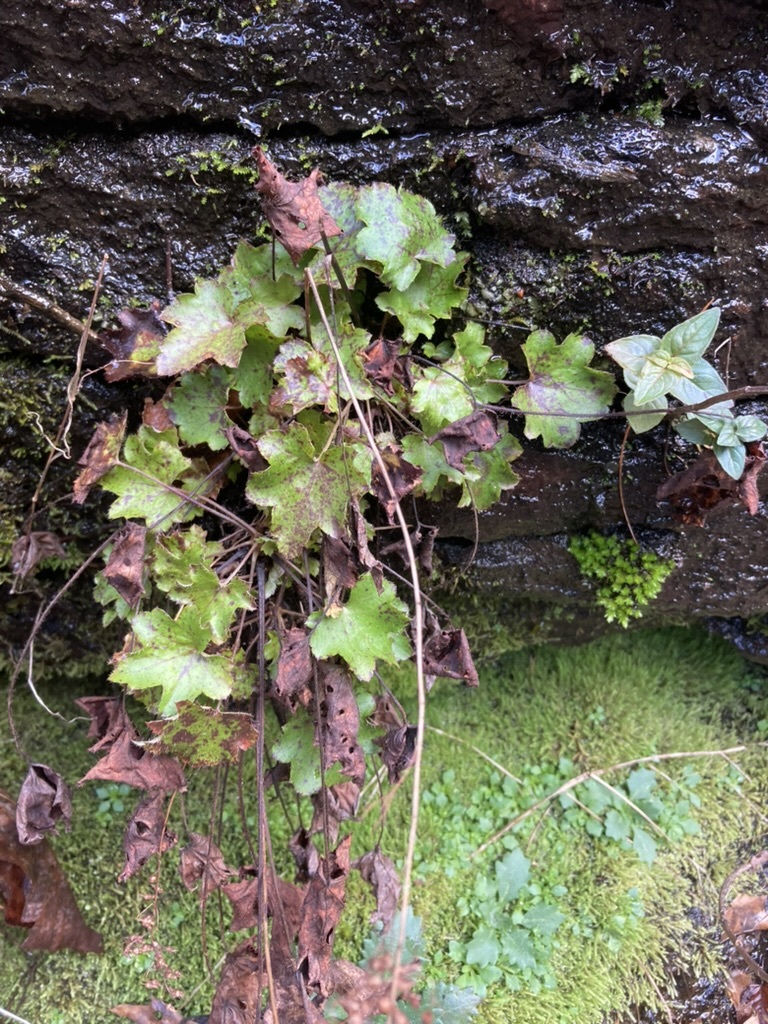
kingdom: Plantae
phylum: Tracheophyta
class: Magnoliopsida
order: Saxifragales
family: Saxifragaceae
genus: Heuchera
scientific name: Heuchera villosa
